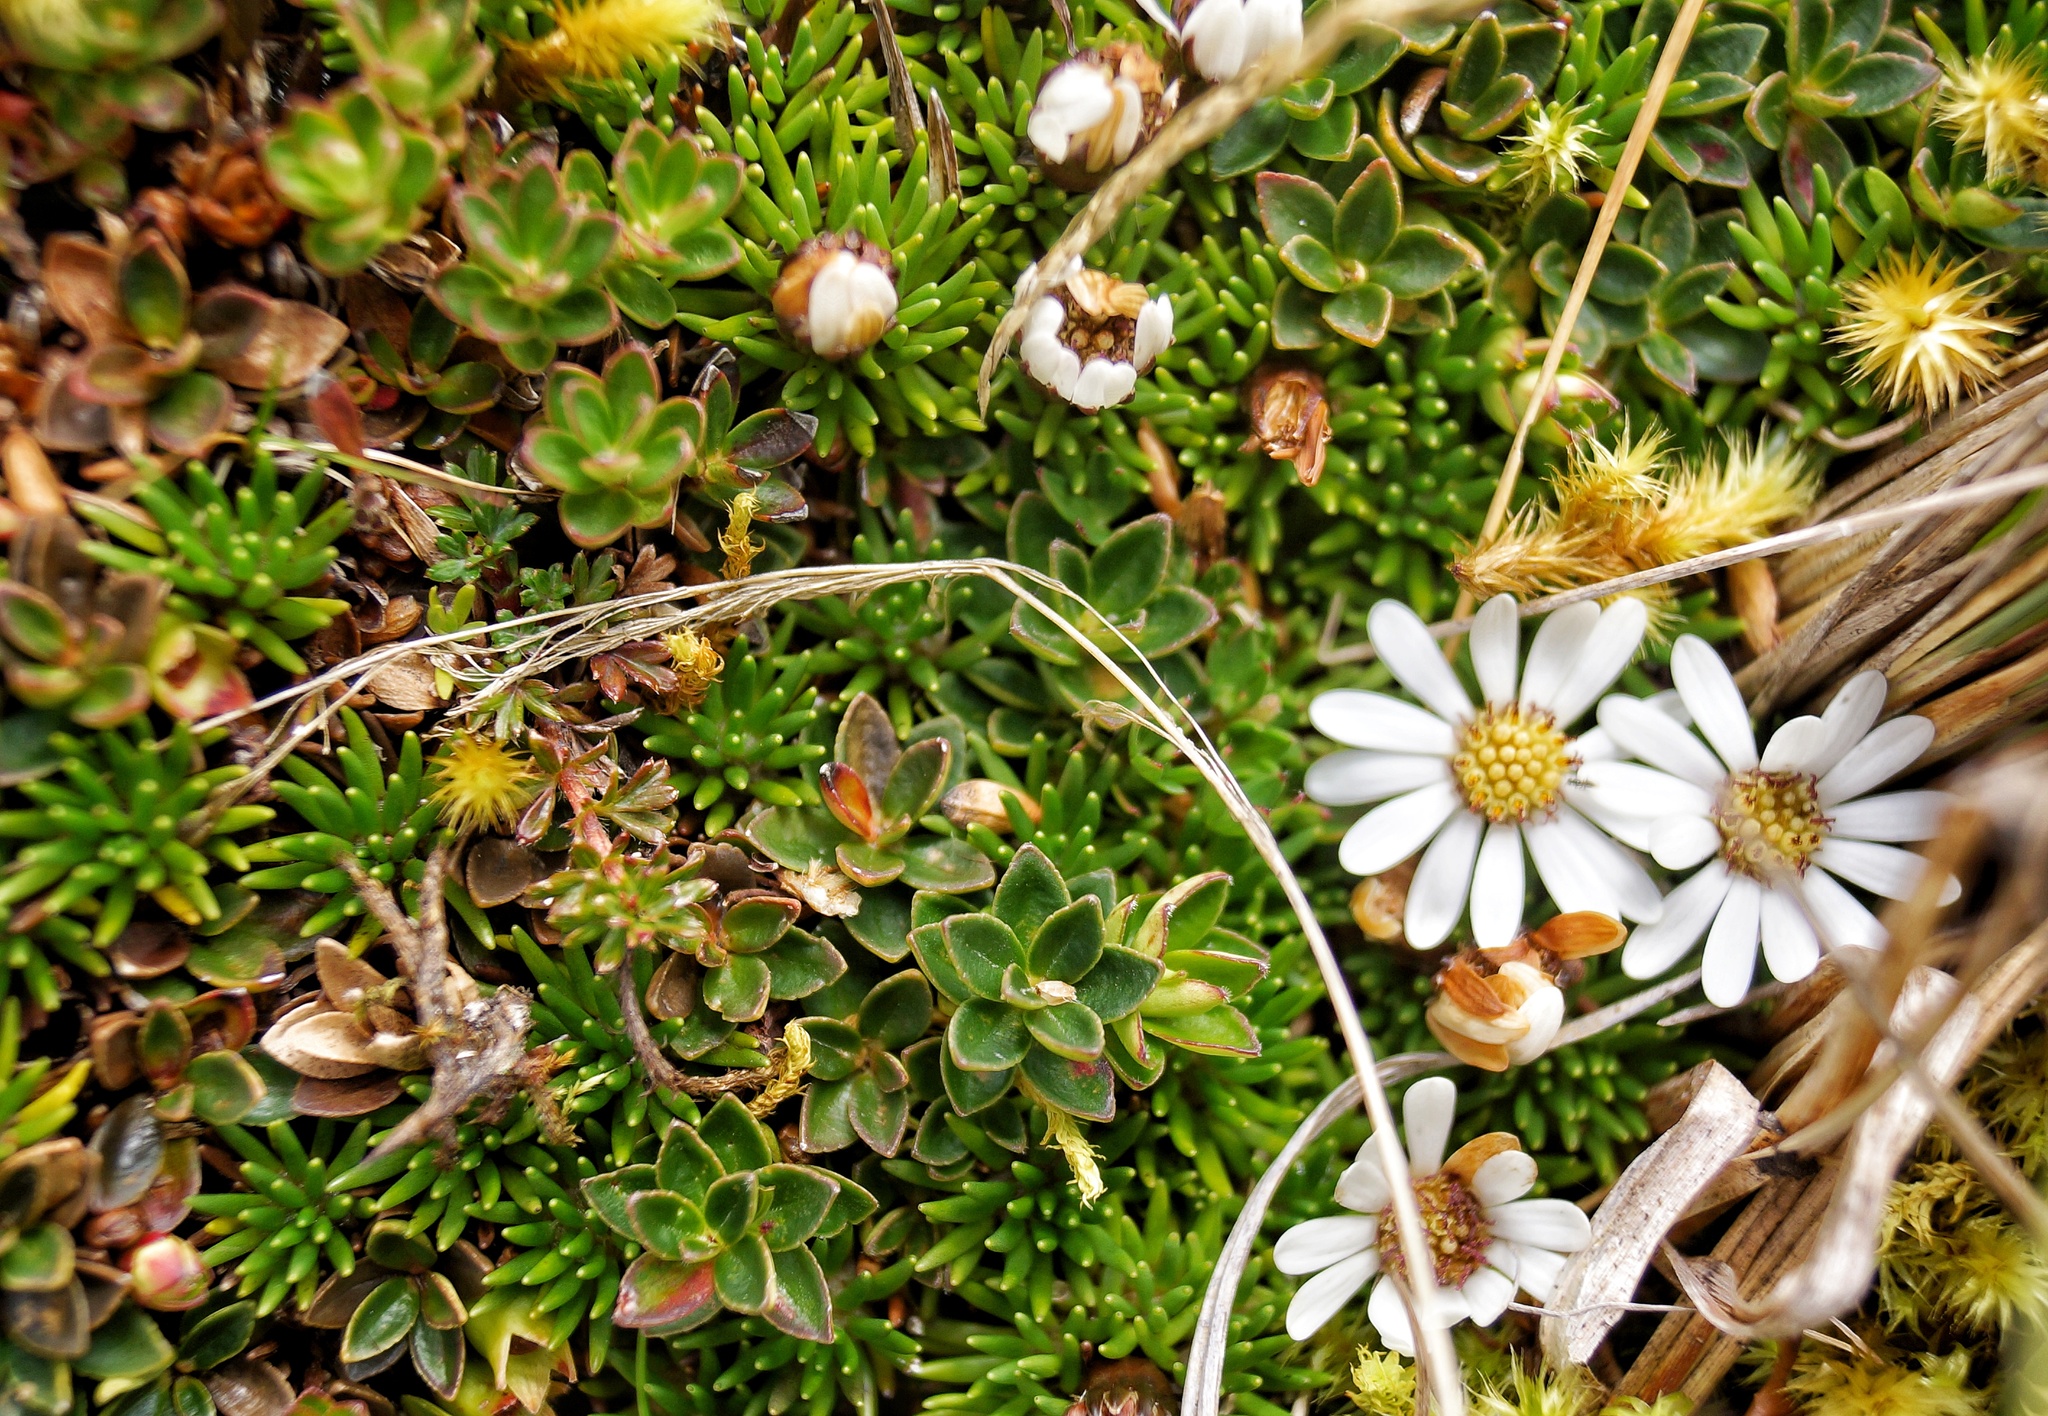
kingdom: Plantae
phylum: Tracheophyta
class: Magnoliopsida
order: Asterales
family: Asteraceae
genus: Werneria
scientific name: Werneria humilis
